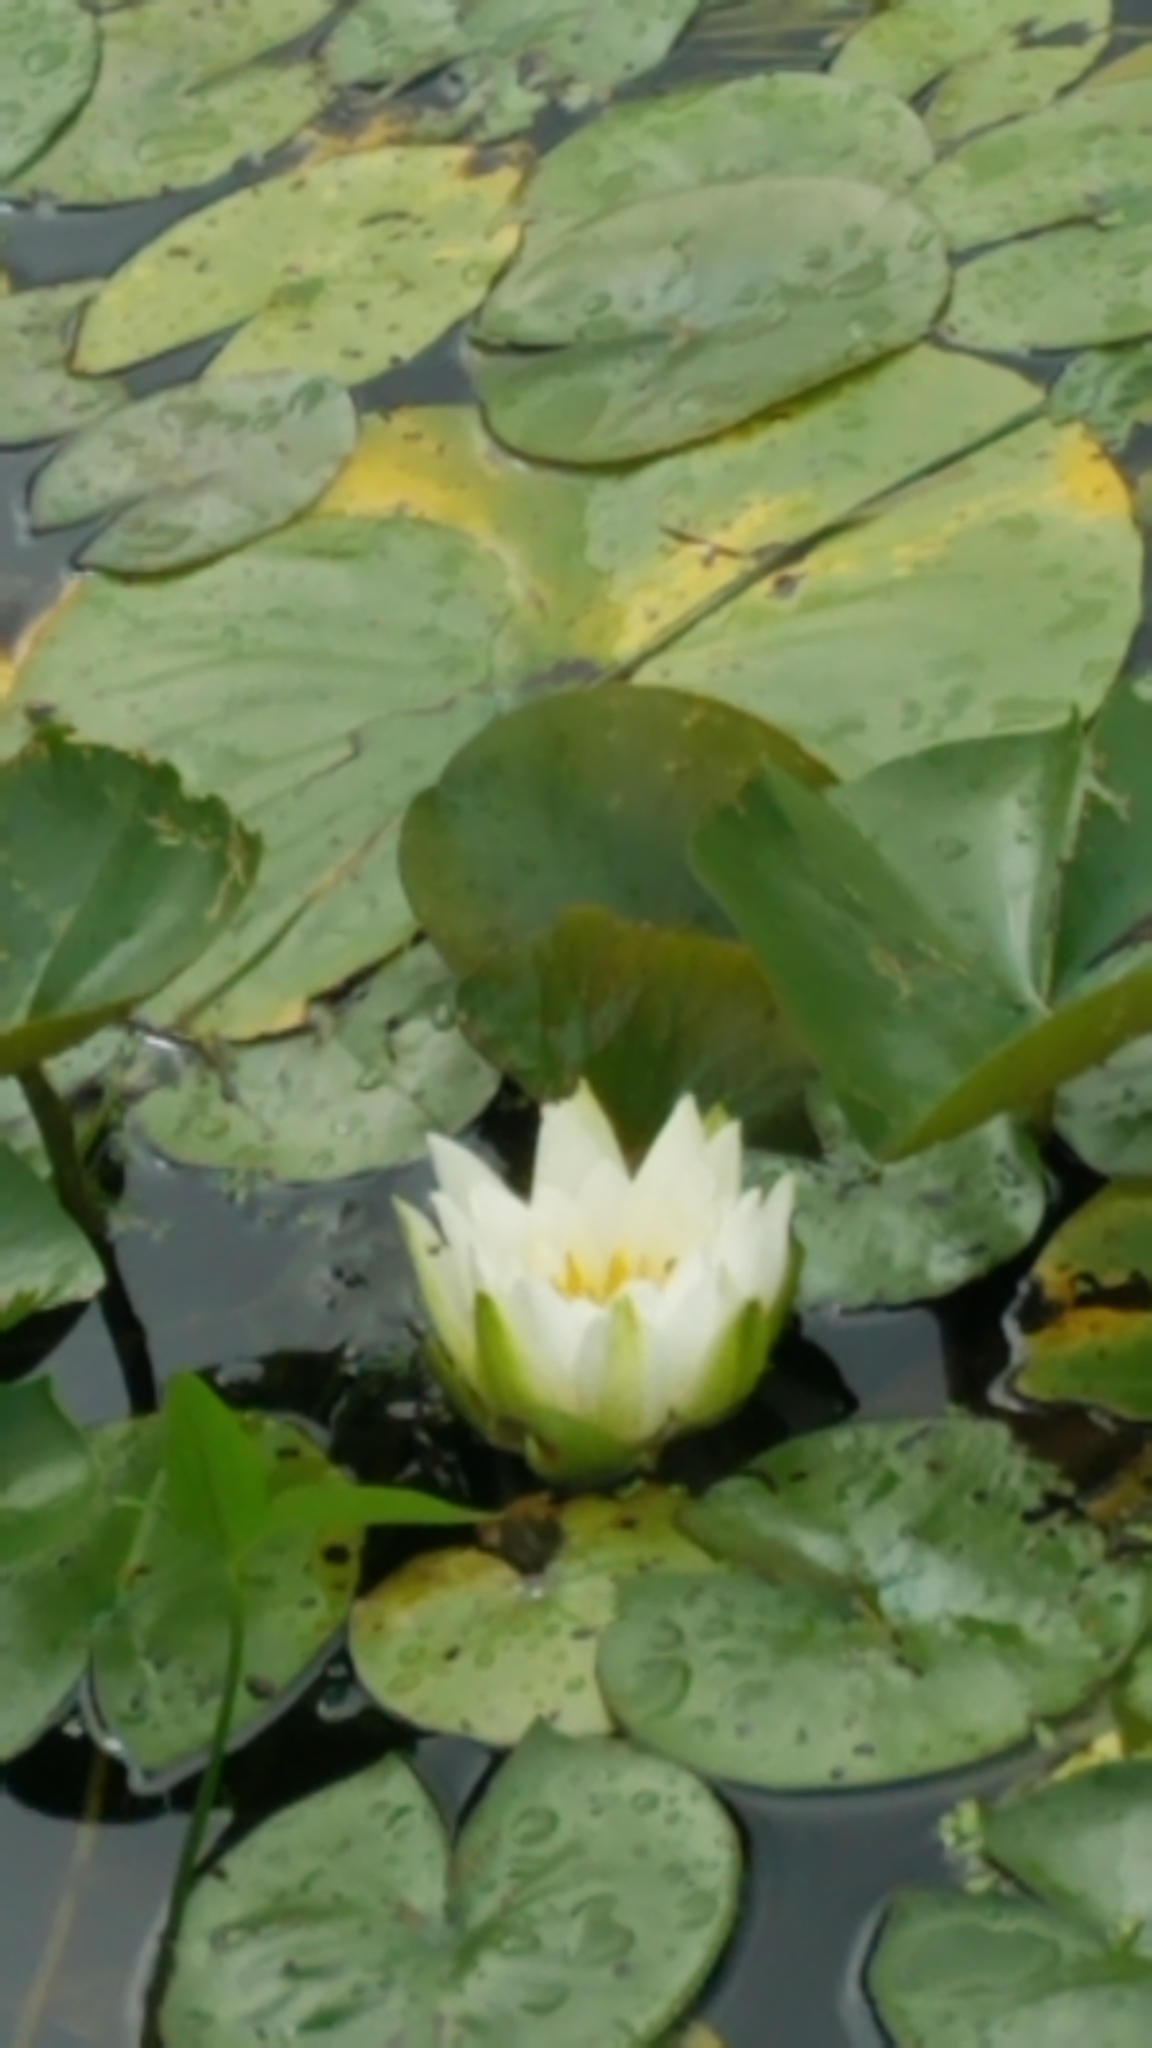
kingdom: Plantae
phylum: Tracheophyta
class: Magnoliopsida
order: Nymphaeales
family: Nymphaeaceae
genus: Nymphaea
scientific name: Nymphaea odorata
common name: Fragrant water-lily
